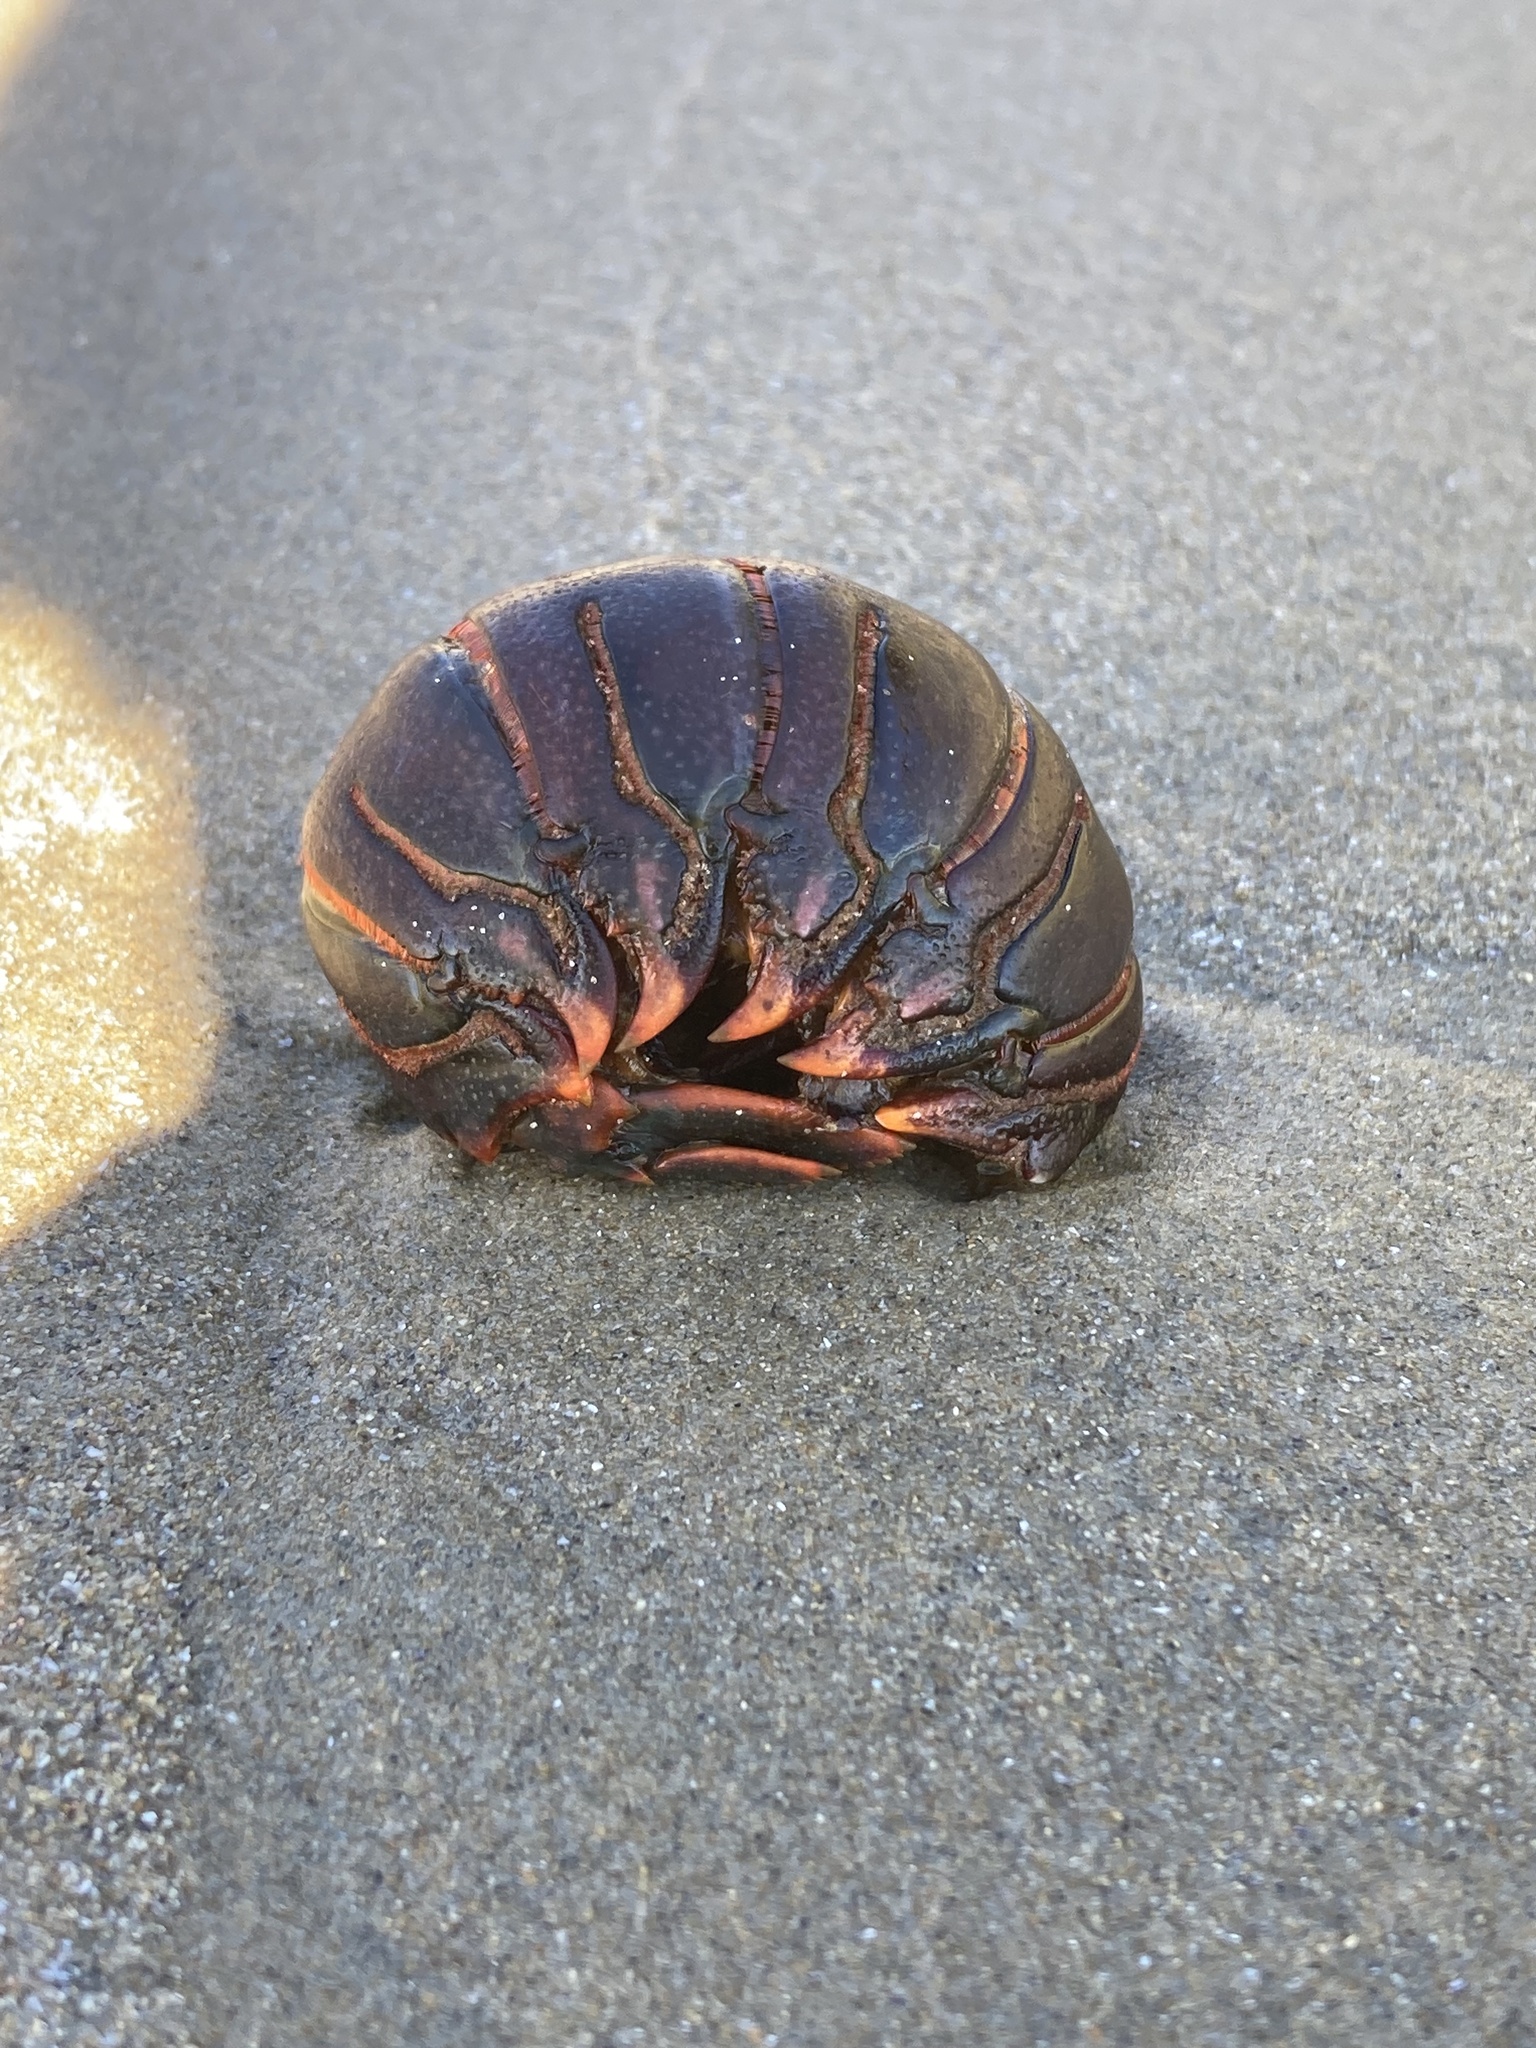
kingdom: Animalia
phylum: Arthropoda
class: Malacostraca
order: Decapoda
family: Palinuridae
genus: Panulirus
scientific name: Panulirus interruptus
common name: California spiny lobster
